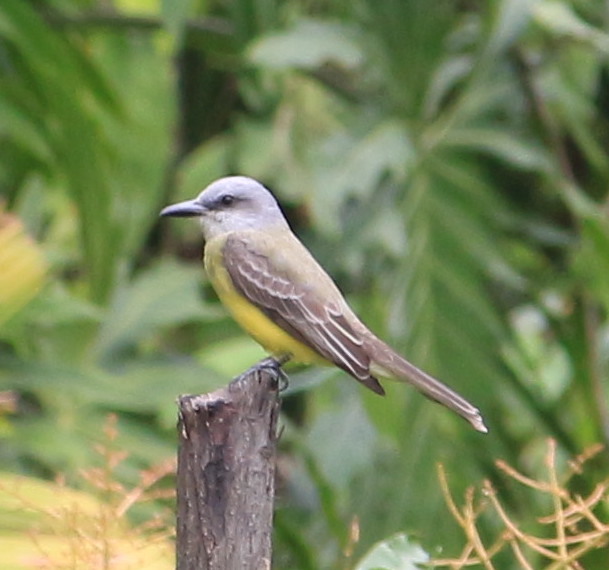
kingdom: Animalia
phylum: Chordata
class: Aves
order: Passeriformes
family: Tyrannidae
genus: Tyrannus
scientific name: Tyrannus melancholicus
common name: Tropical kingbird
